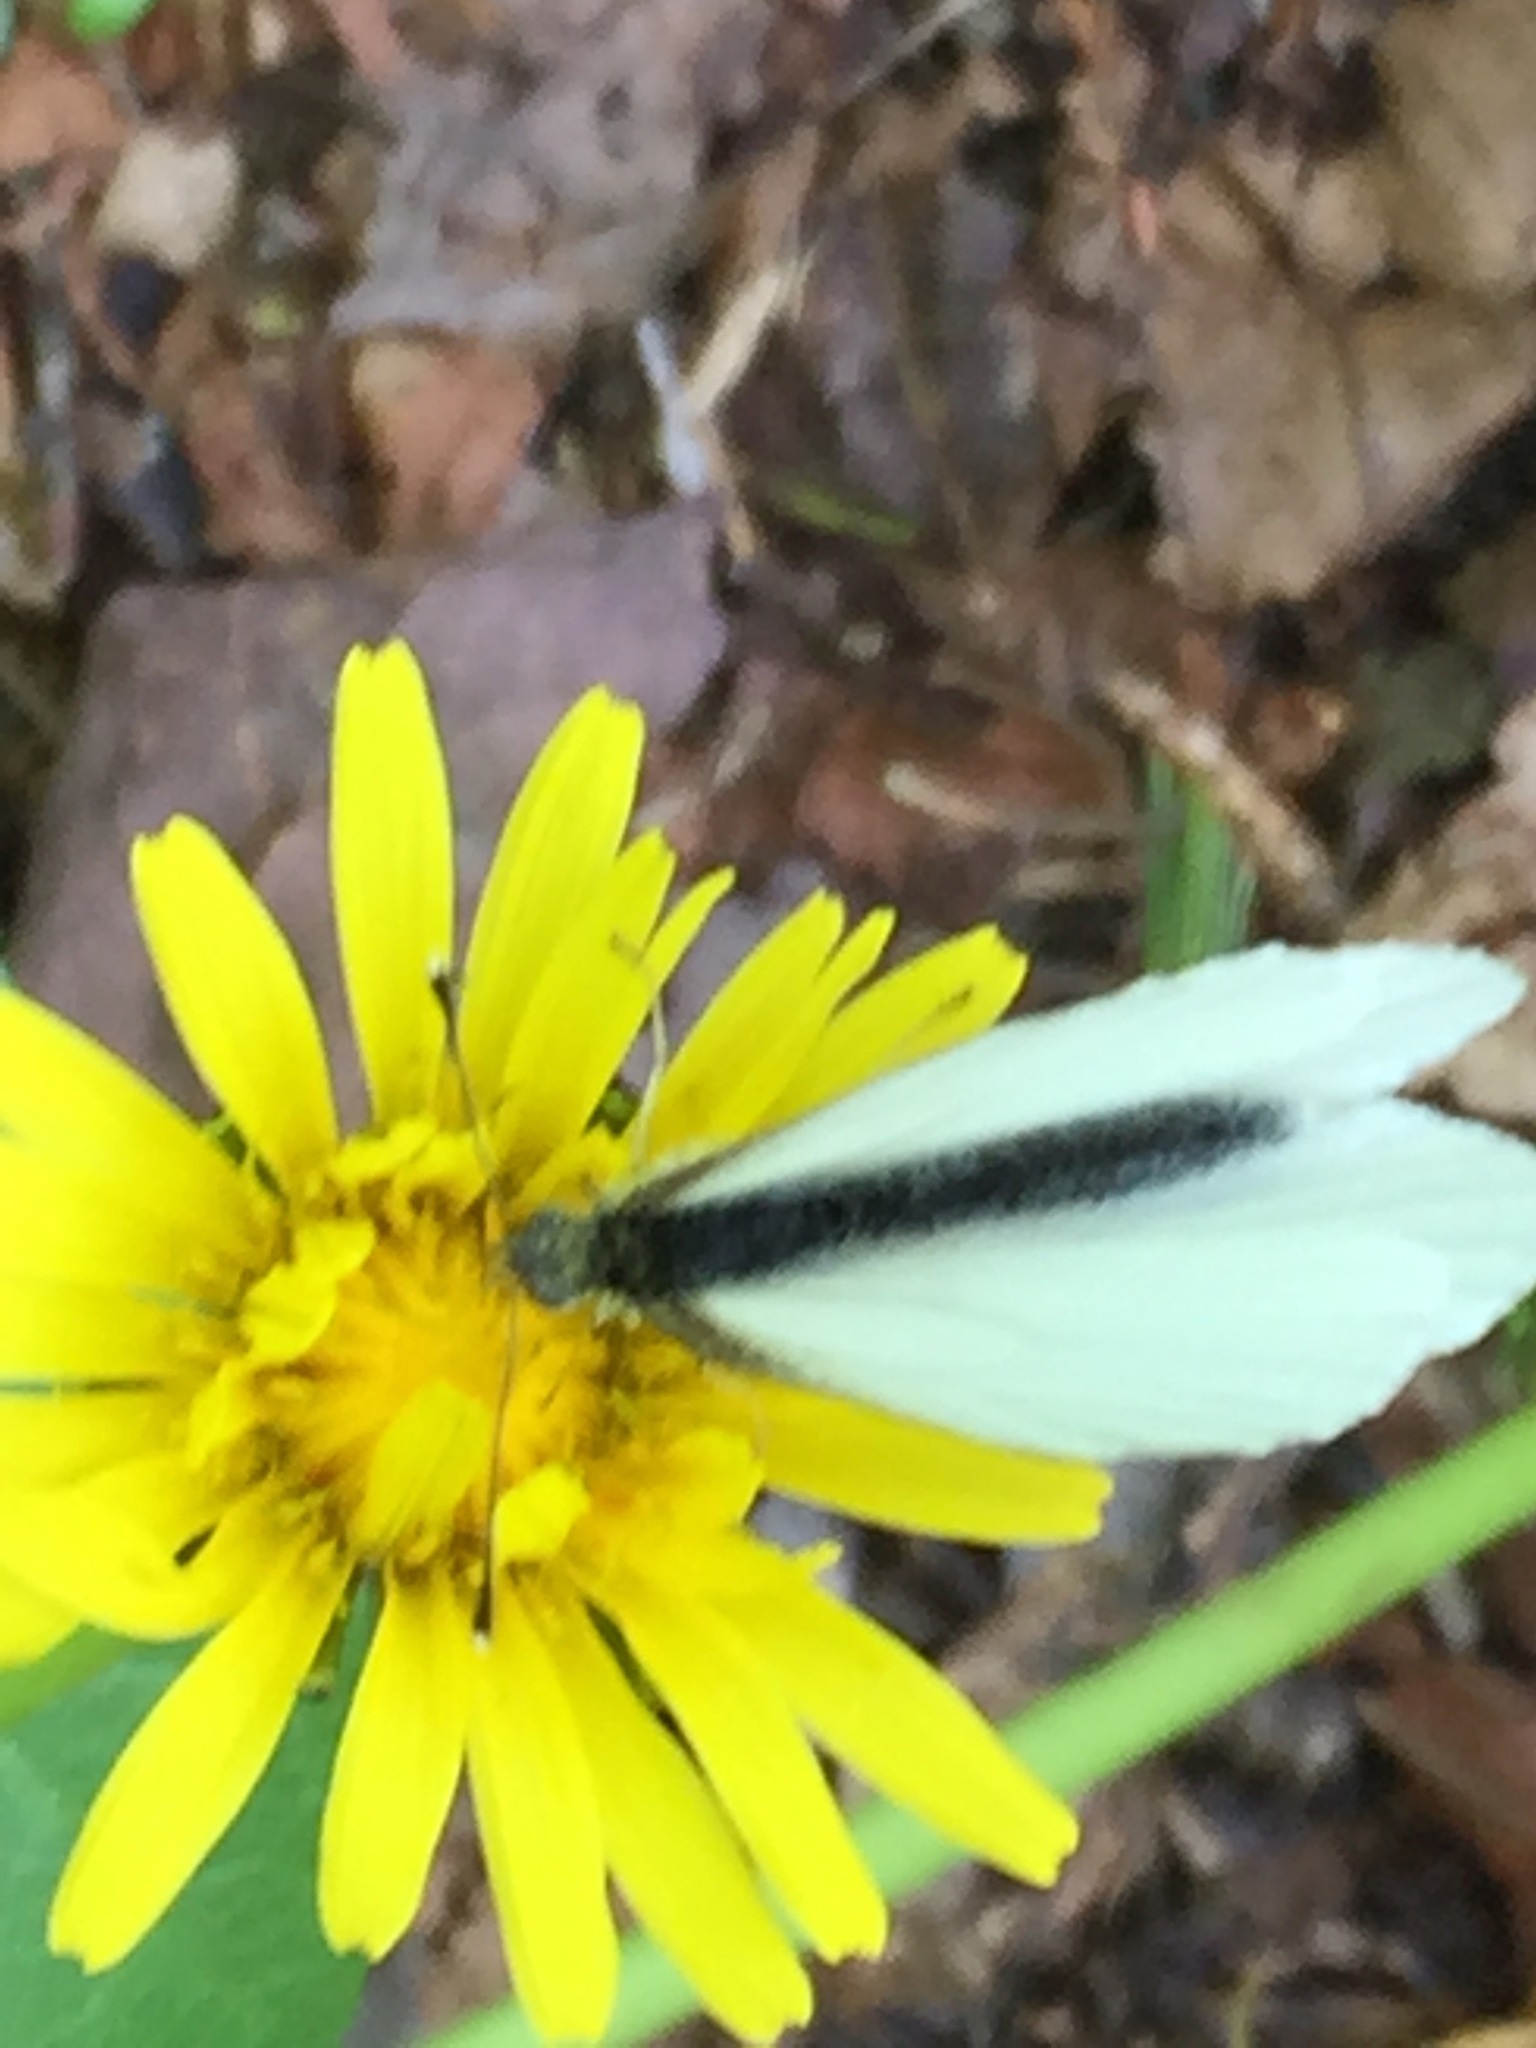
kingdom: Animalia
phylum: Arthropoda
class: Insecta
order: Lepidoptera
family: Pieridae
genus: Pieris
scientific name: Pieris oleracea
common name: Mustard white
